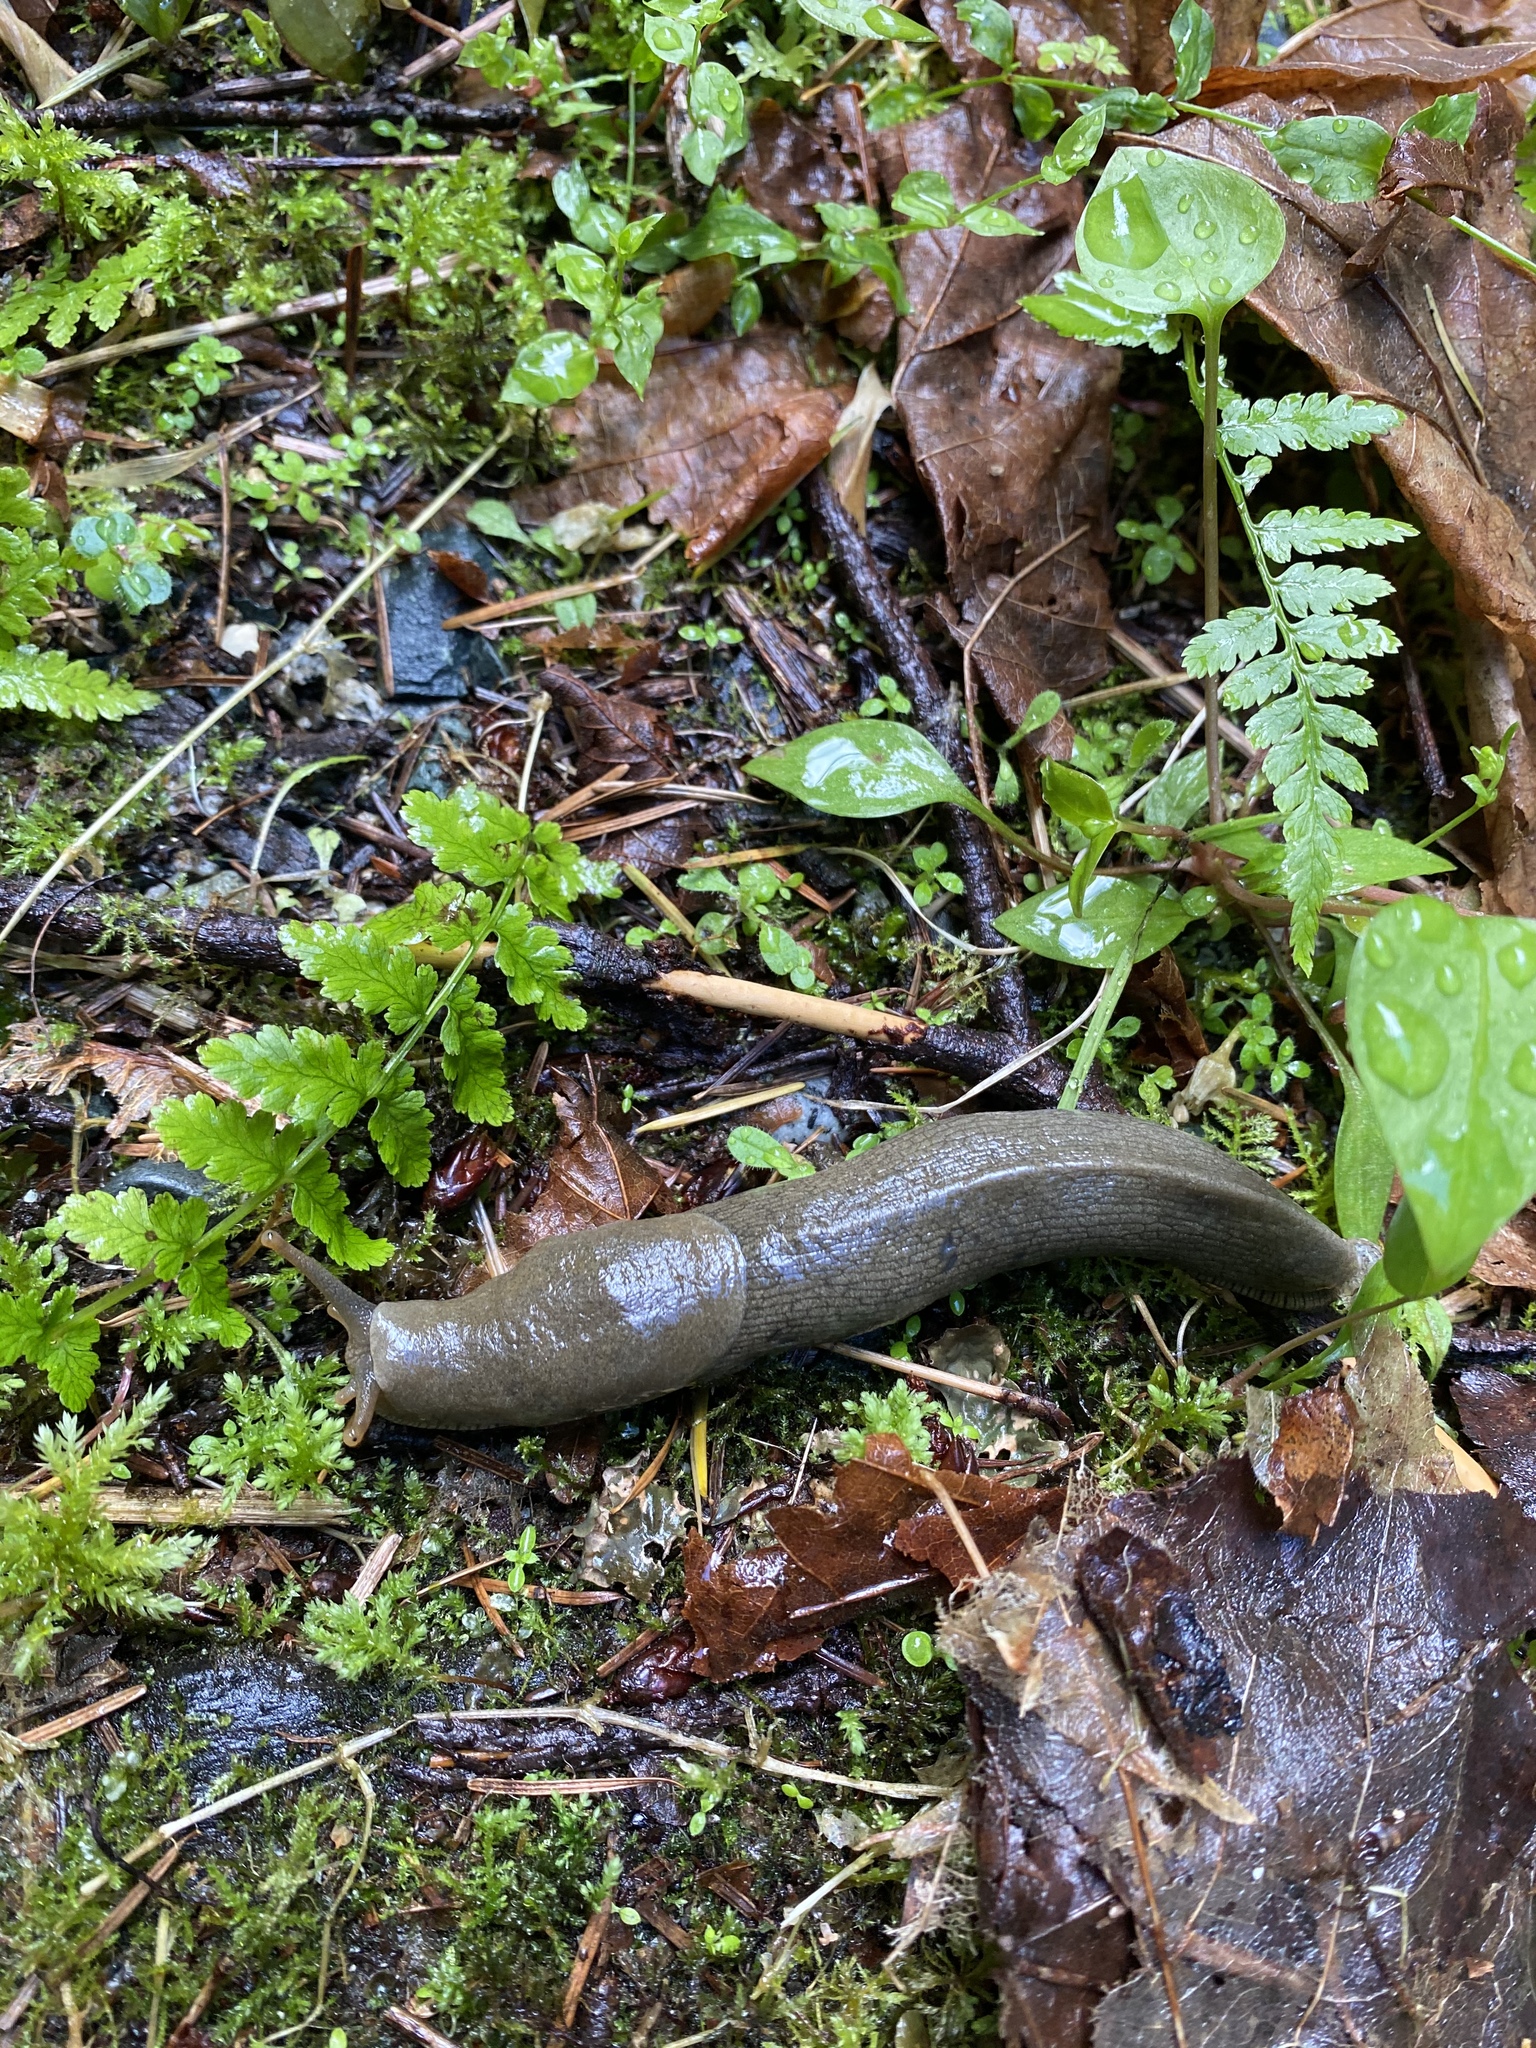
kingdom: Animalia
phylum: Mollusca
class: Gastropoda
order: Stylommatophora
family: Ariolimacidae
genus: Ariolimax
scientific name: Ariolimax columbianus
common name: Pacific banana slug
